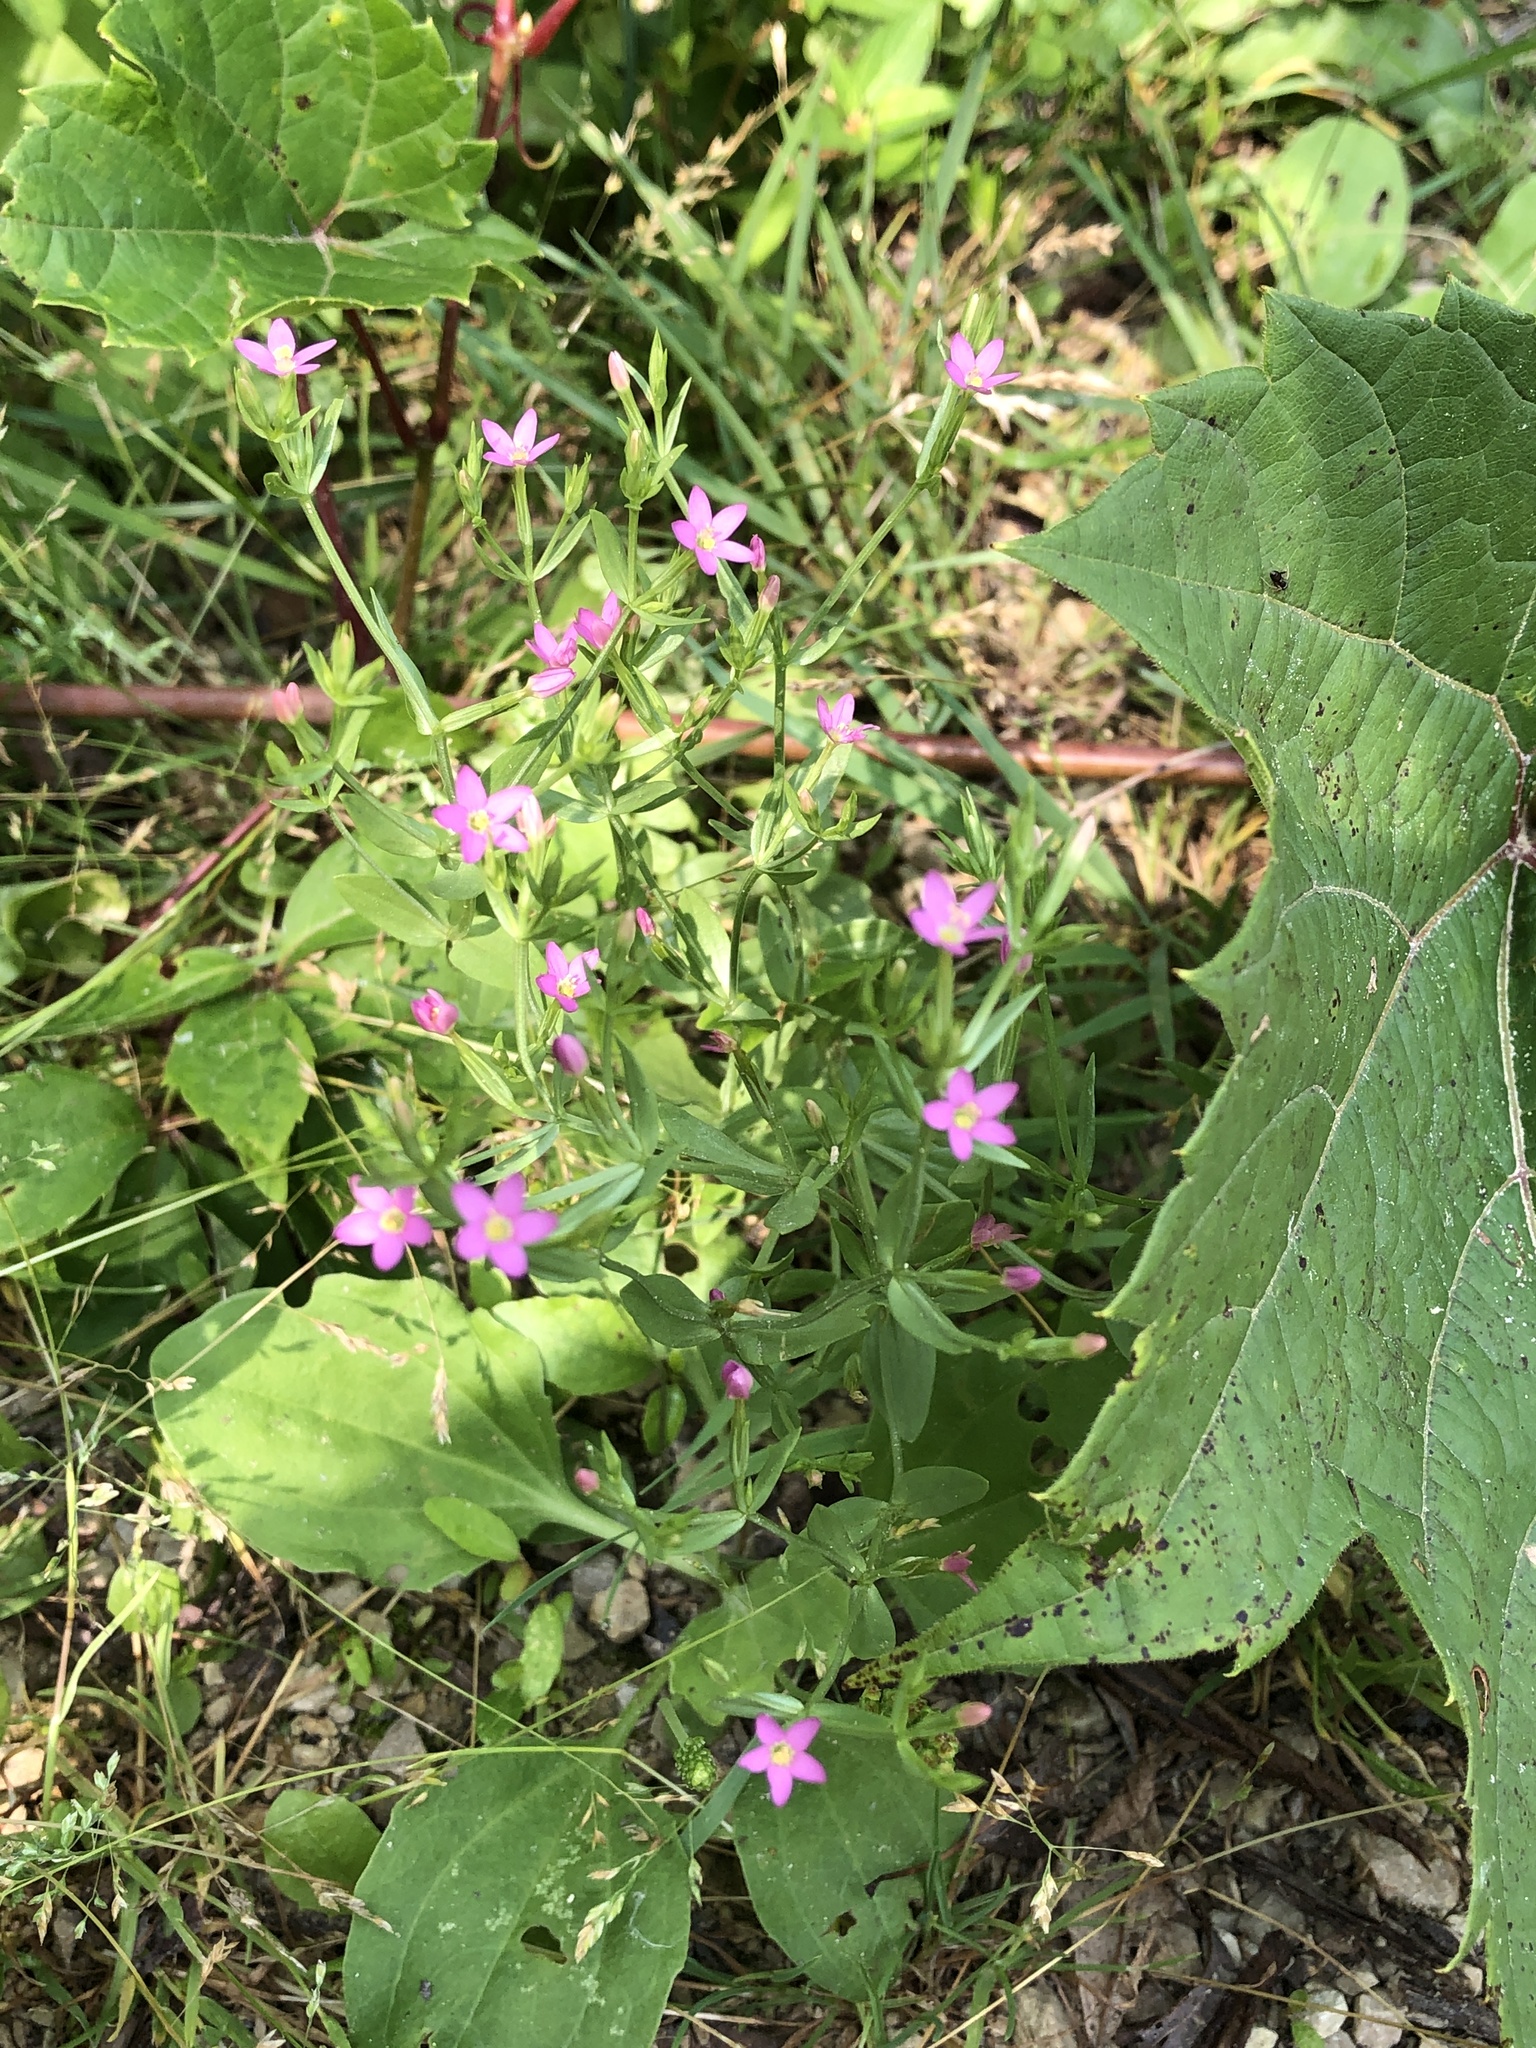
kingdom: Plantae
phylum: Tracheophyta
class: Magnoliopsida
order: Gentianales
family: Gentianaceae
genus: Centaurium
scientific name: Centaurium pulchellum
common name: Lesser centaury
